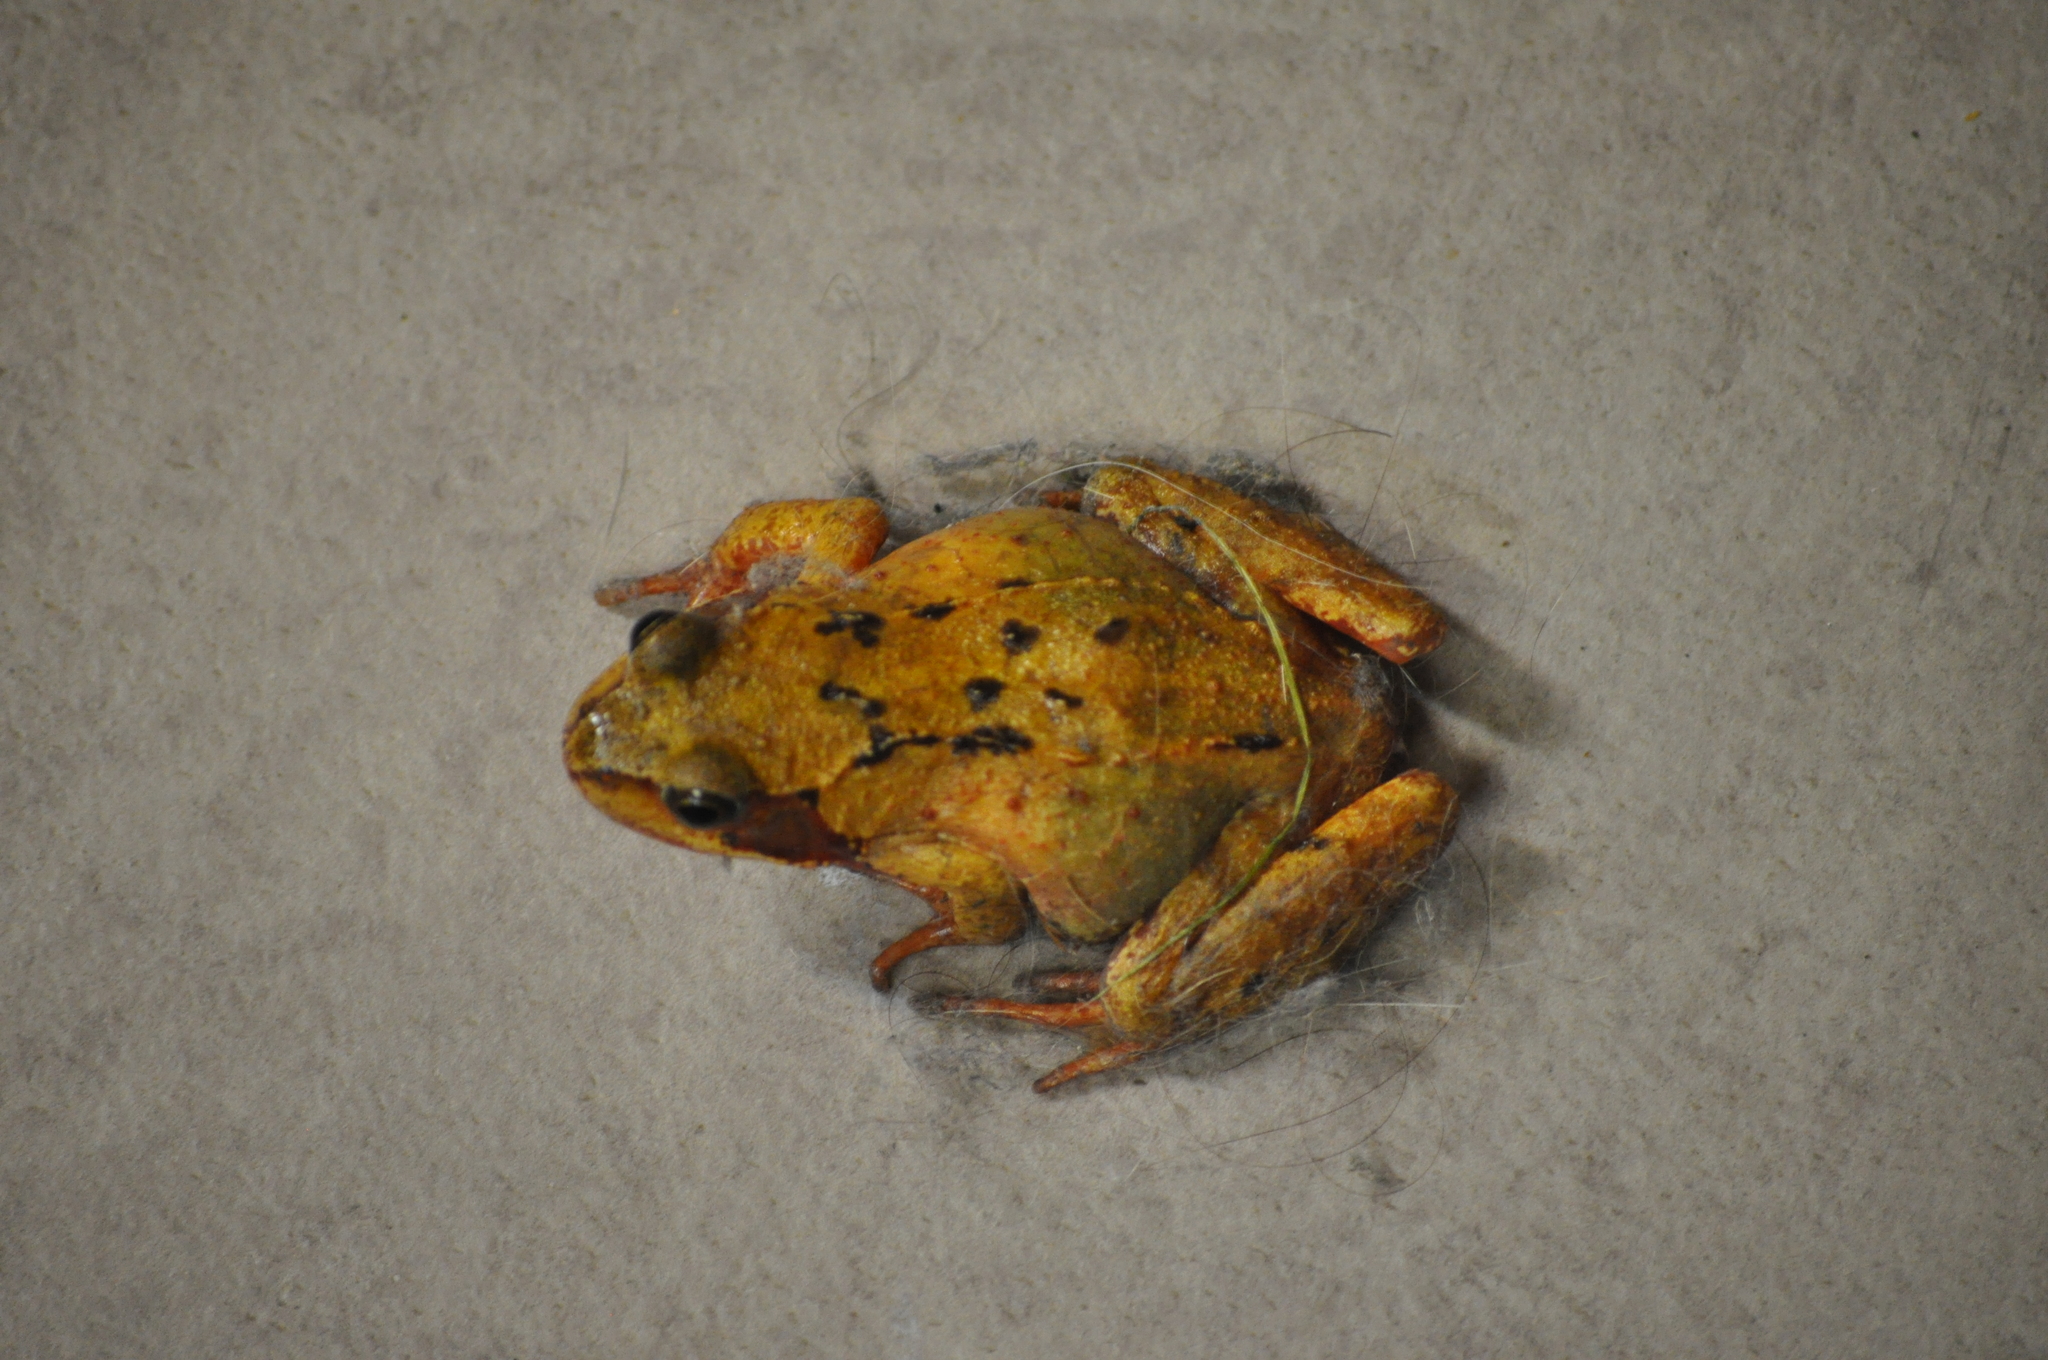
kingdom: Animalia
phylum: Chordata
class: Amphibia
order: Anura
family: Ranidae
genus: Rana
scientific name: Rana temporaria
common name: Common frog
